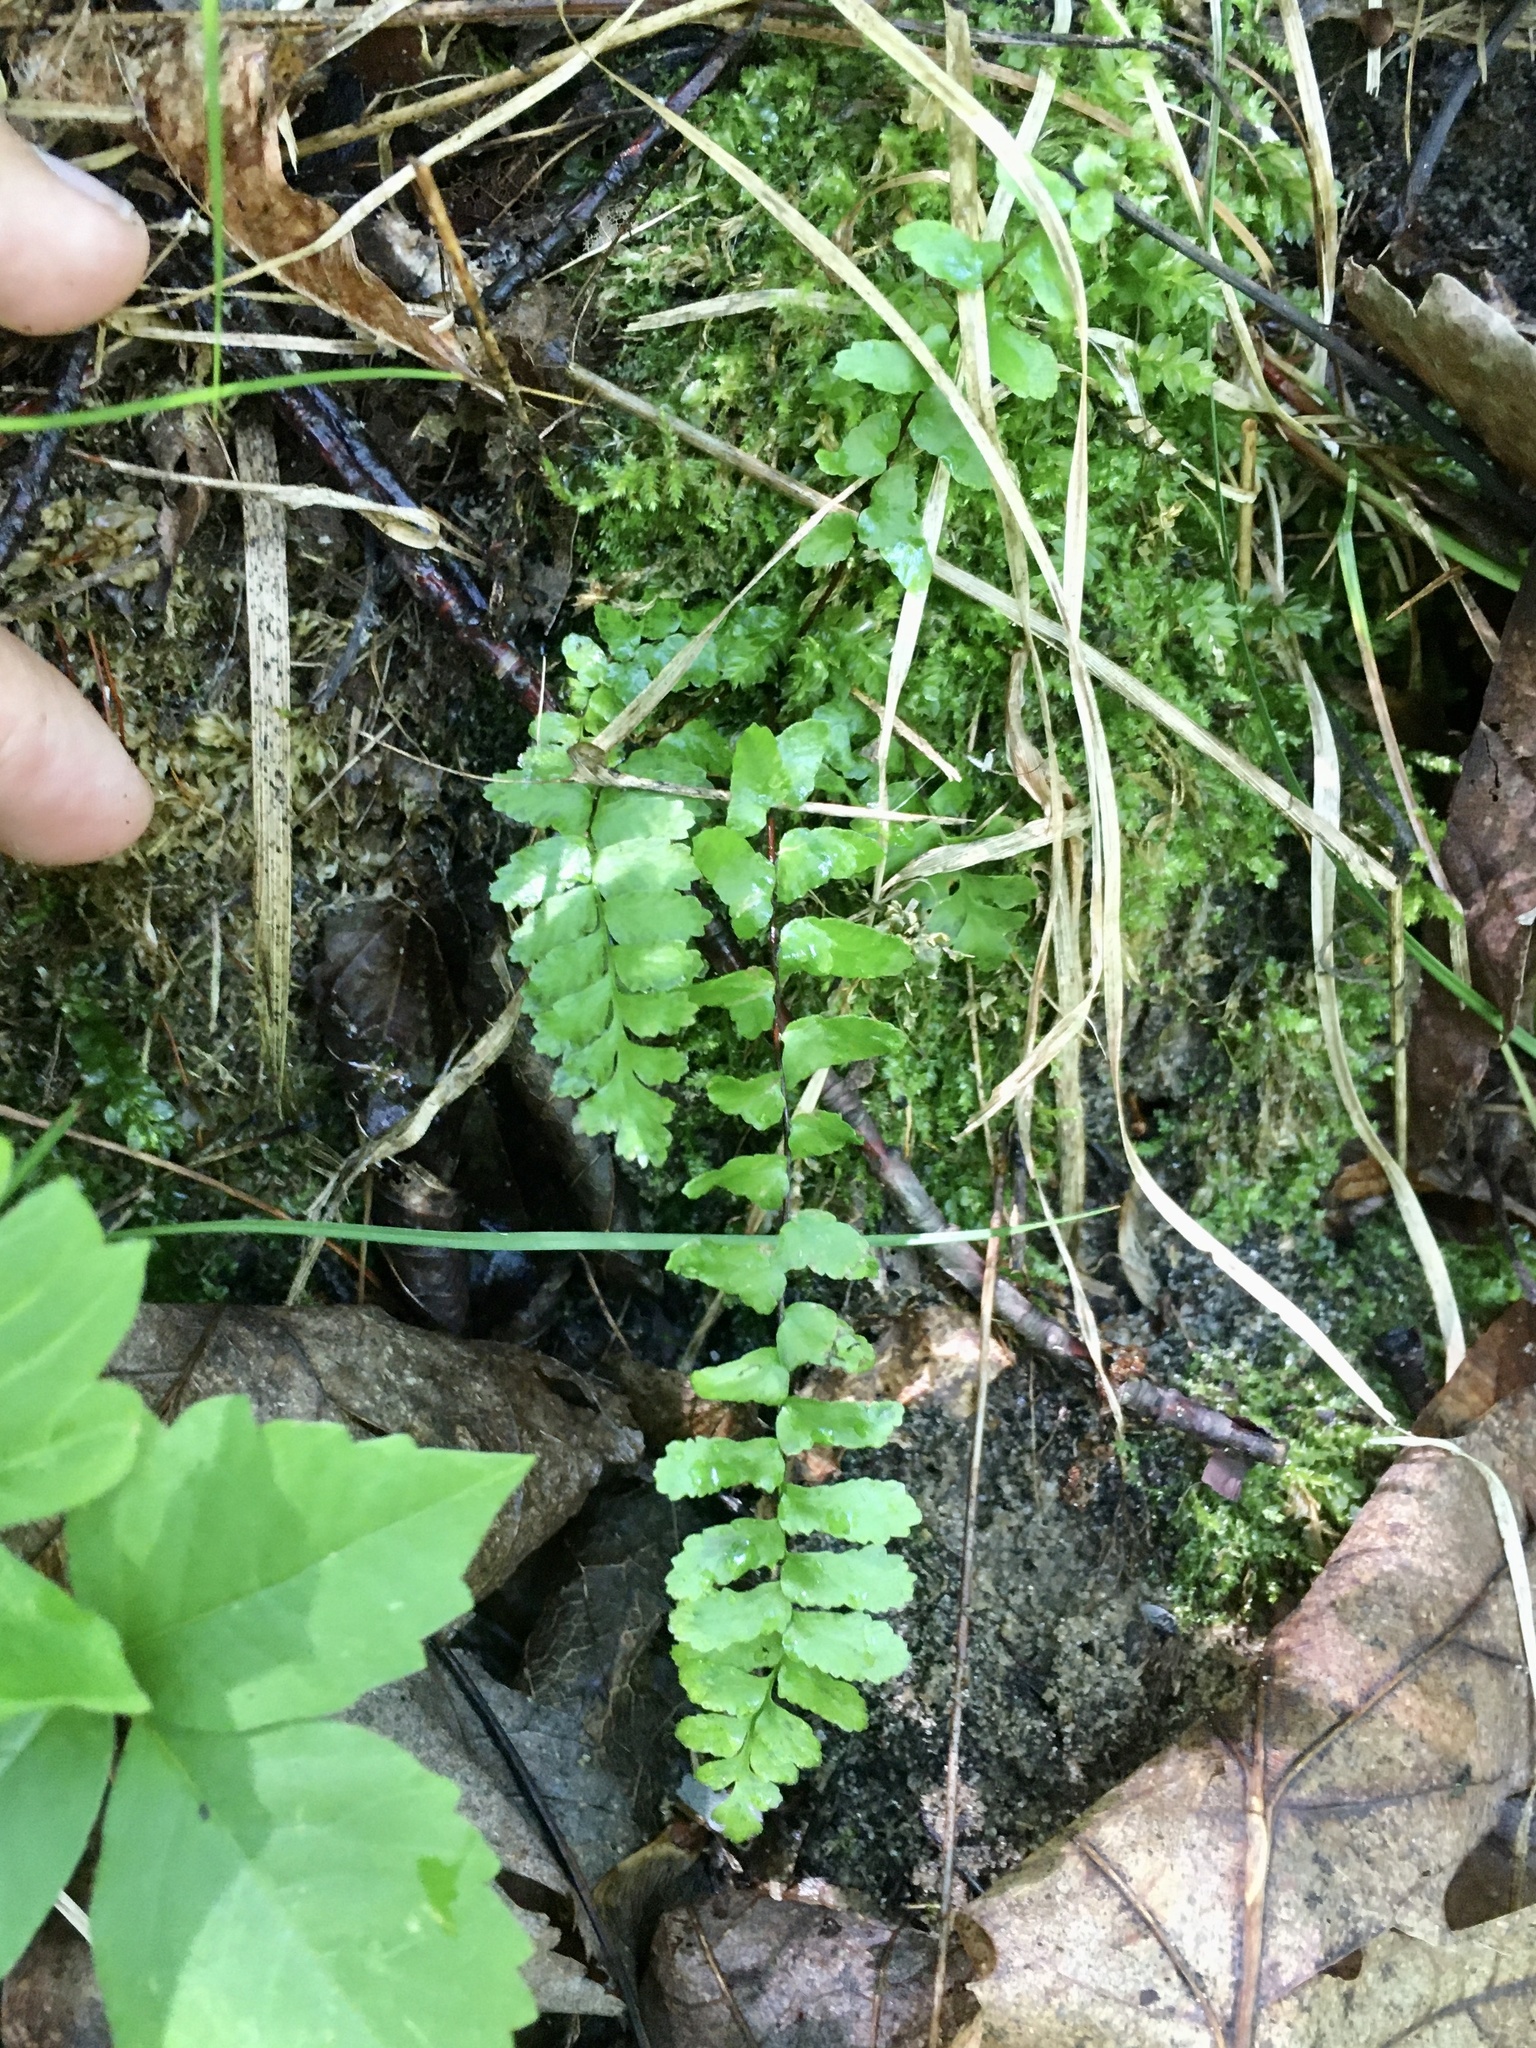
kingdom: Plantae
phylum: Tracheophyta
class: Polypodiopsida
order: Polypodiales
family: Aspleniaceae
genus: Asplenium
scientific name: Asplenium platyneuron
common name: Ebony spleenwort
